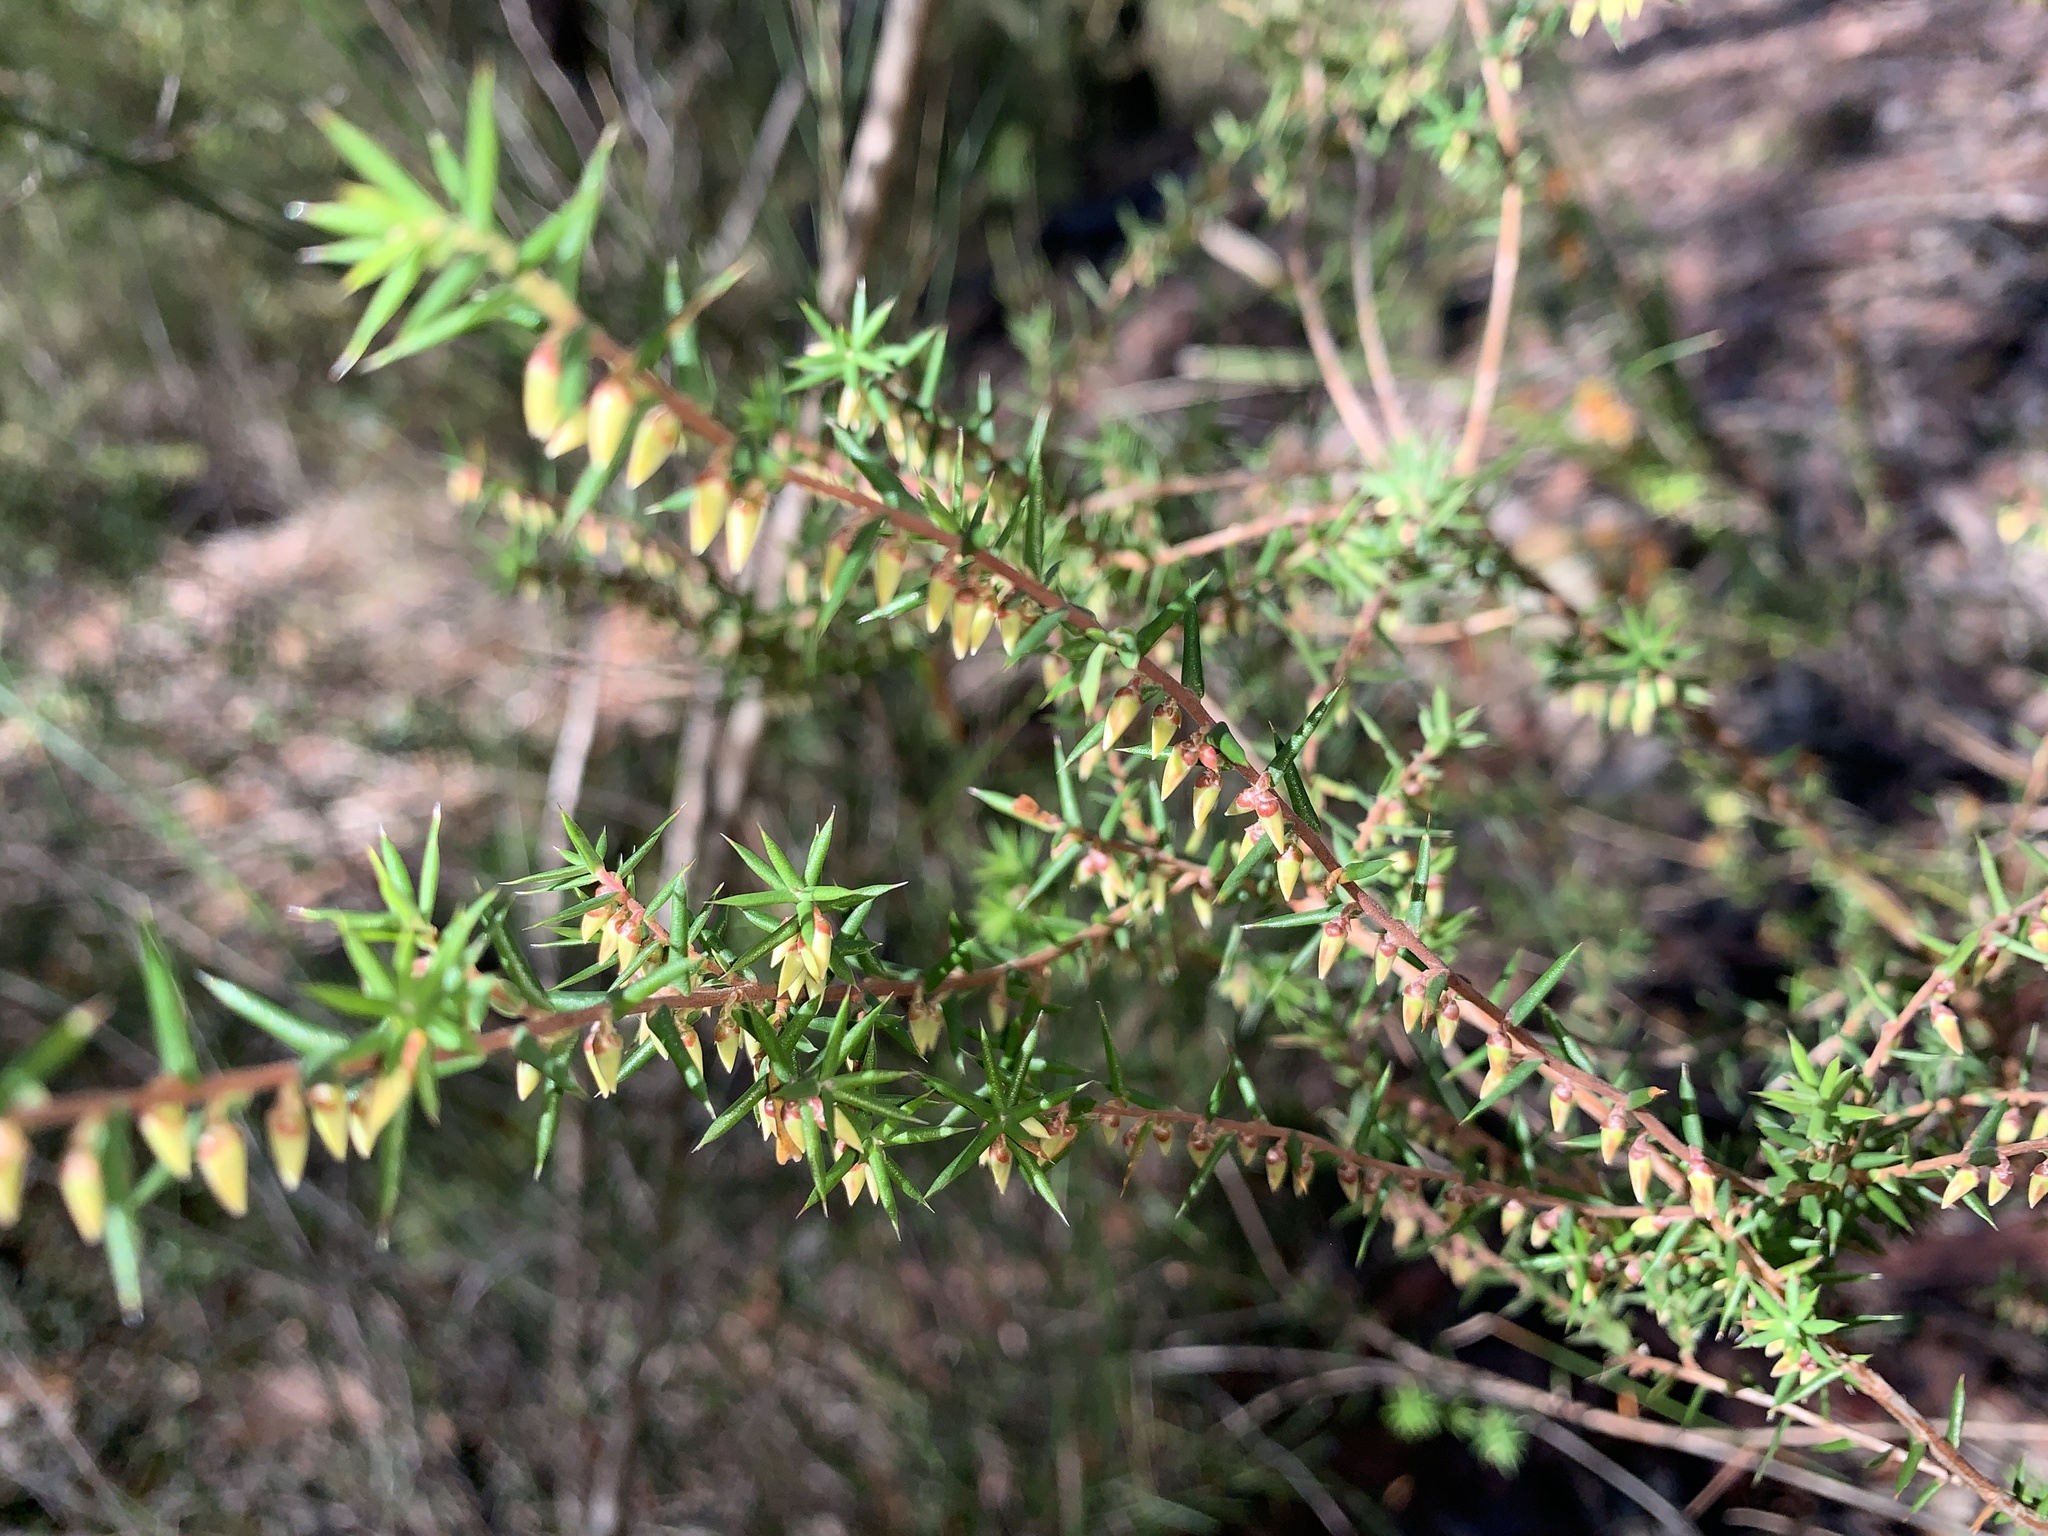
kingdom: Plantae
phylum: Tracheophyta
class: Magnoliopsida
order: Ericales
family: Ericaceae
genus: Styphelia
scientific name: Styphelia fletcheri
